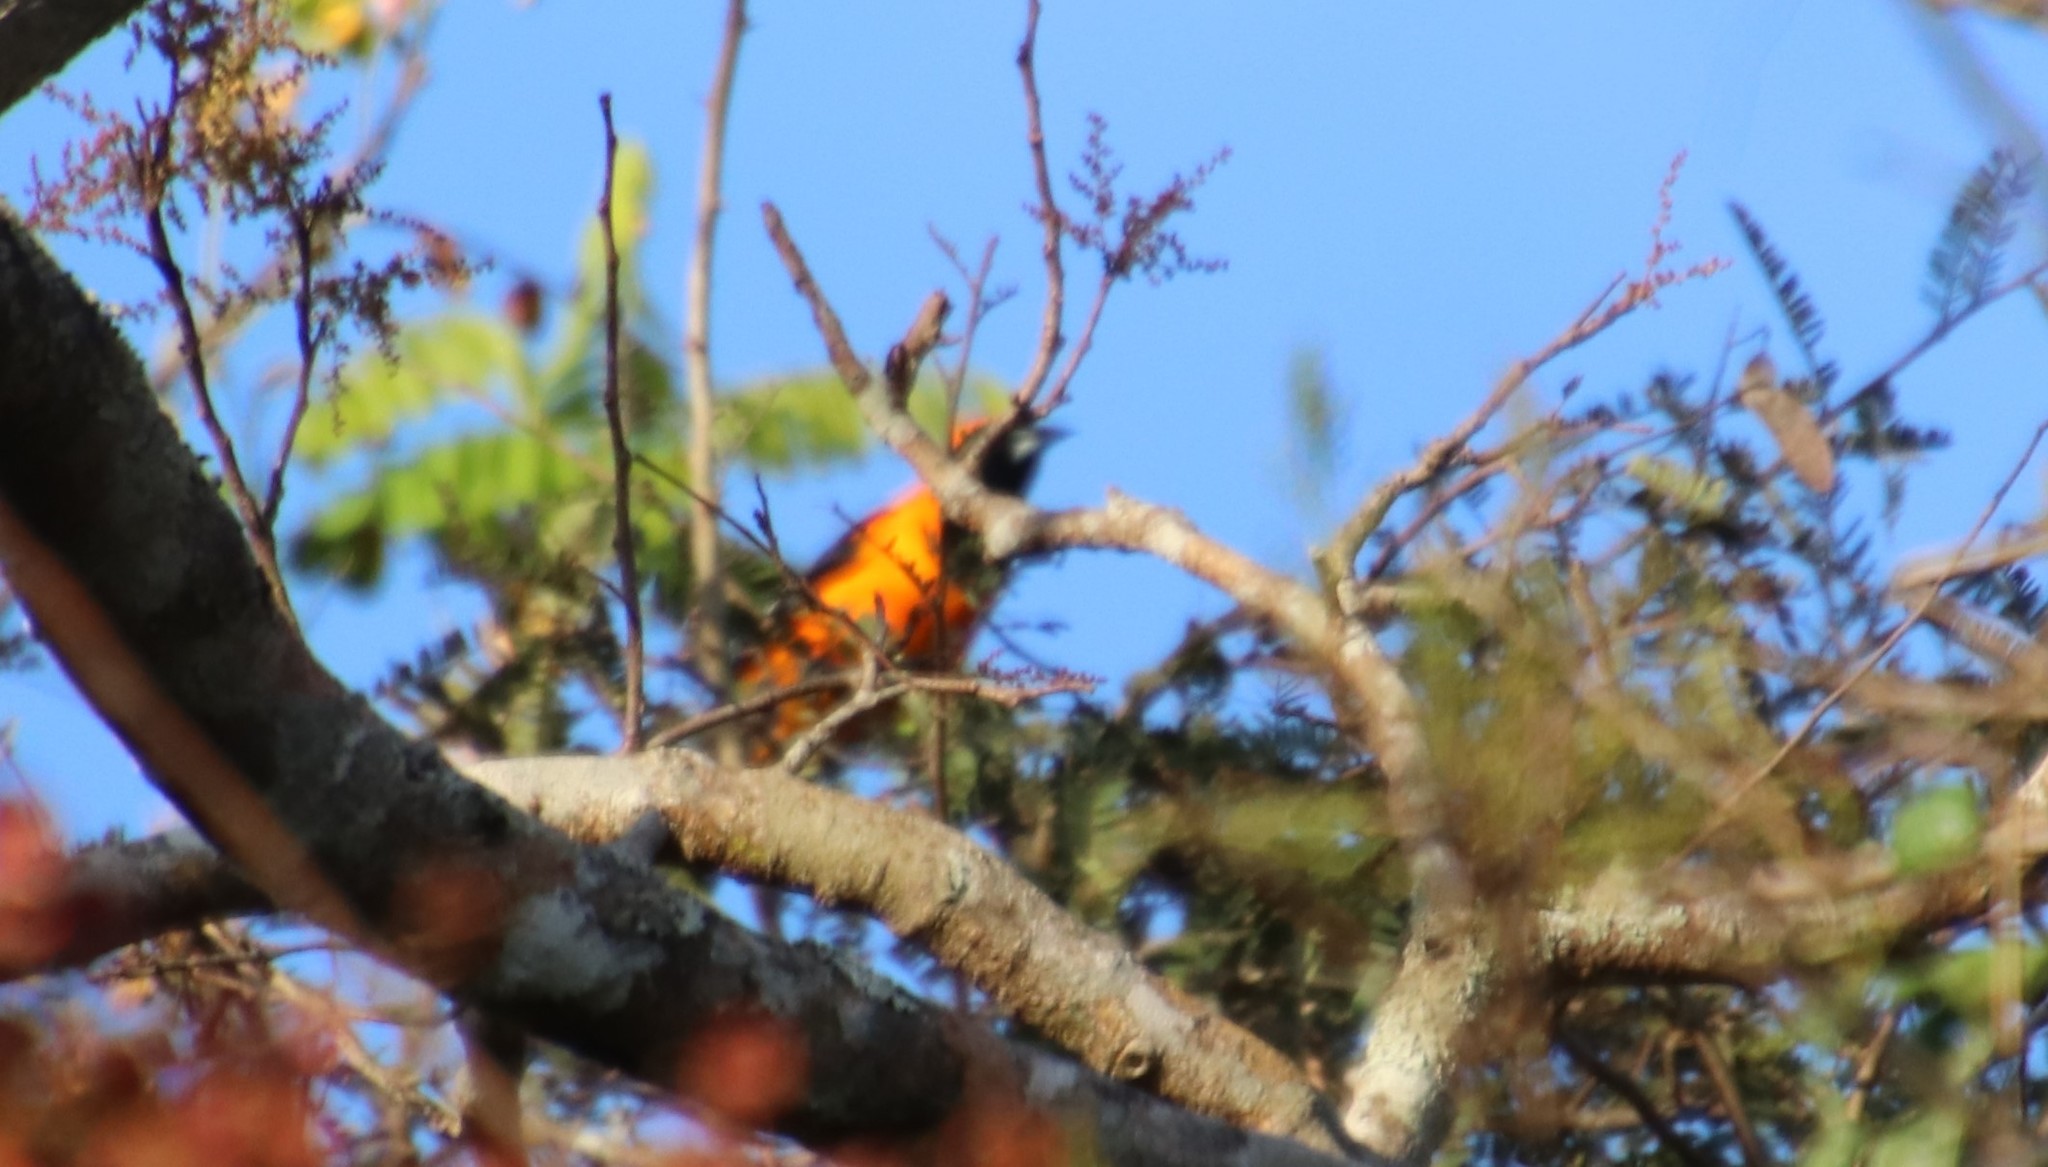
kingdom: Animalia
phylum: Chordata
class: Aves
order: Passeriformes
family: Icteridae
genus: Icterus
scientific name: Icterus icterus
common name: Venezuelan troupial
